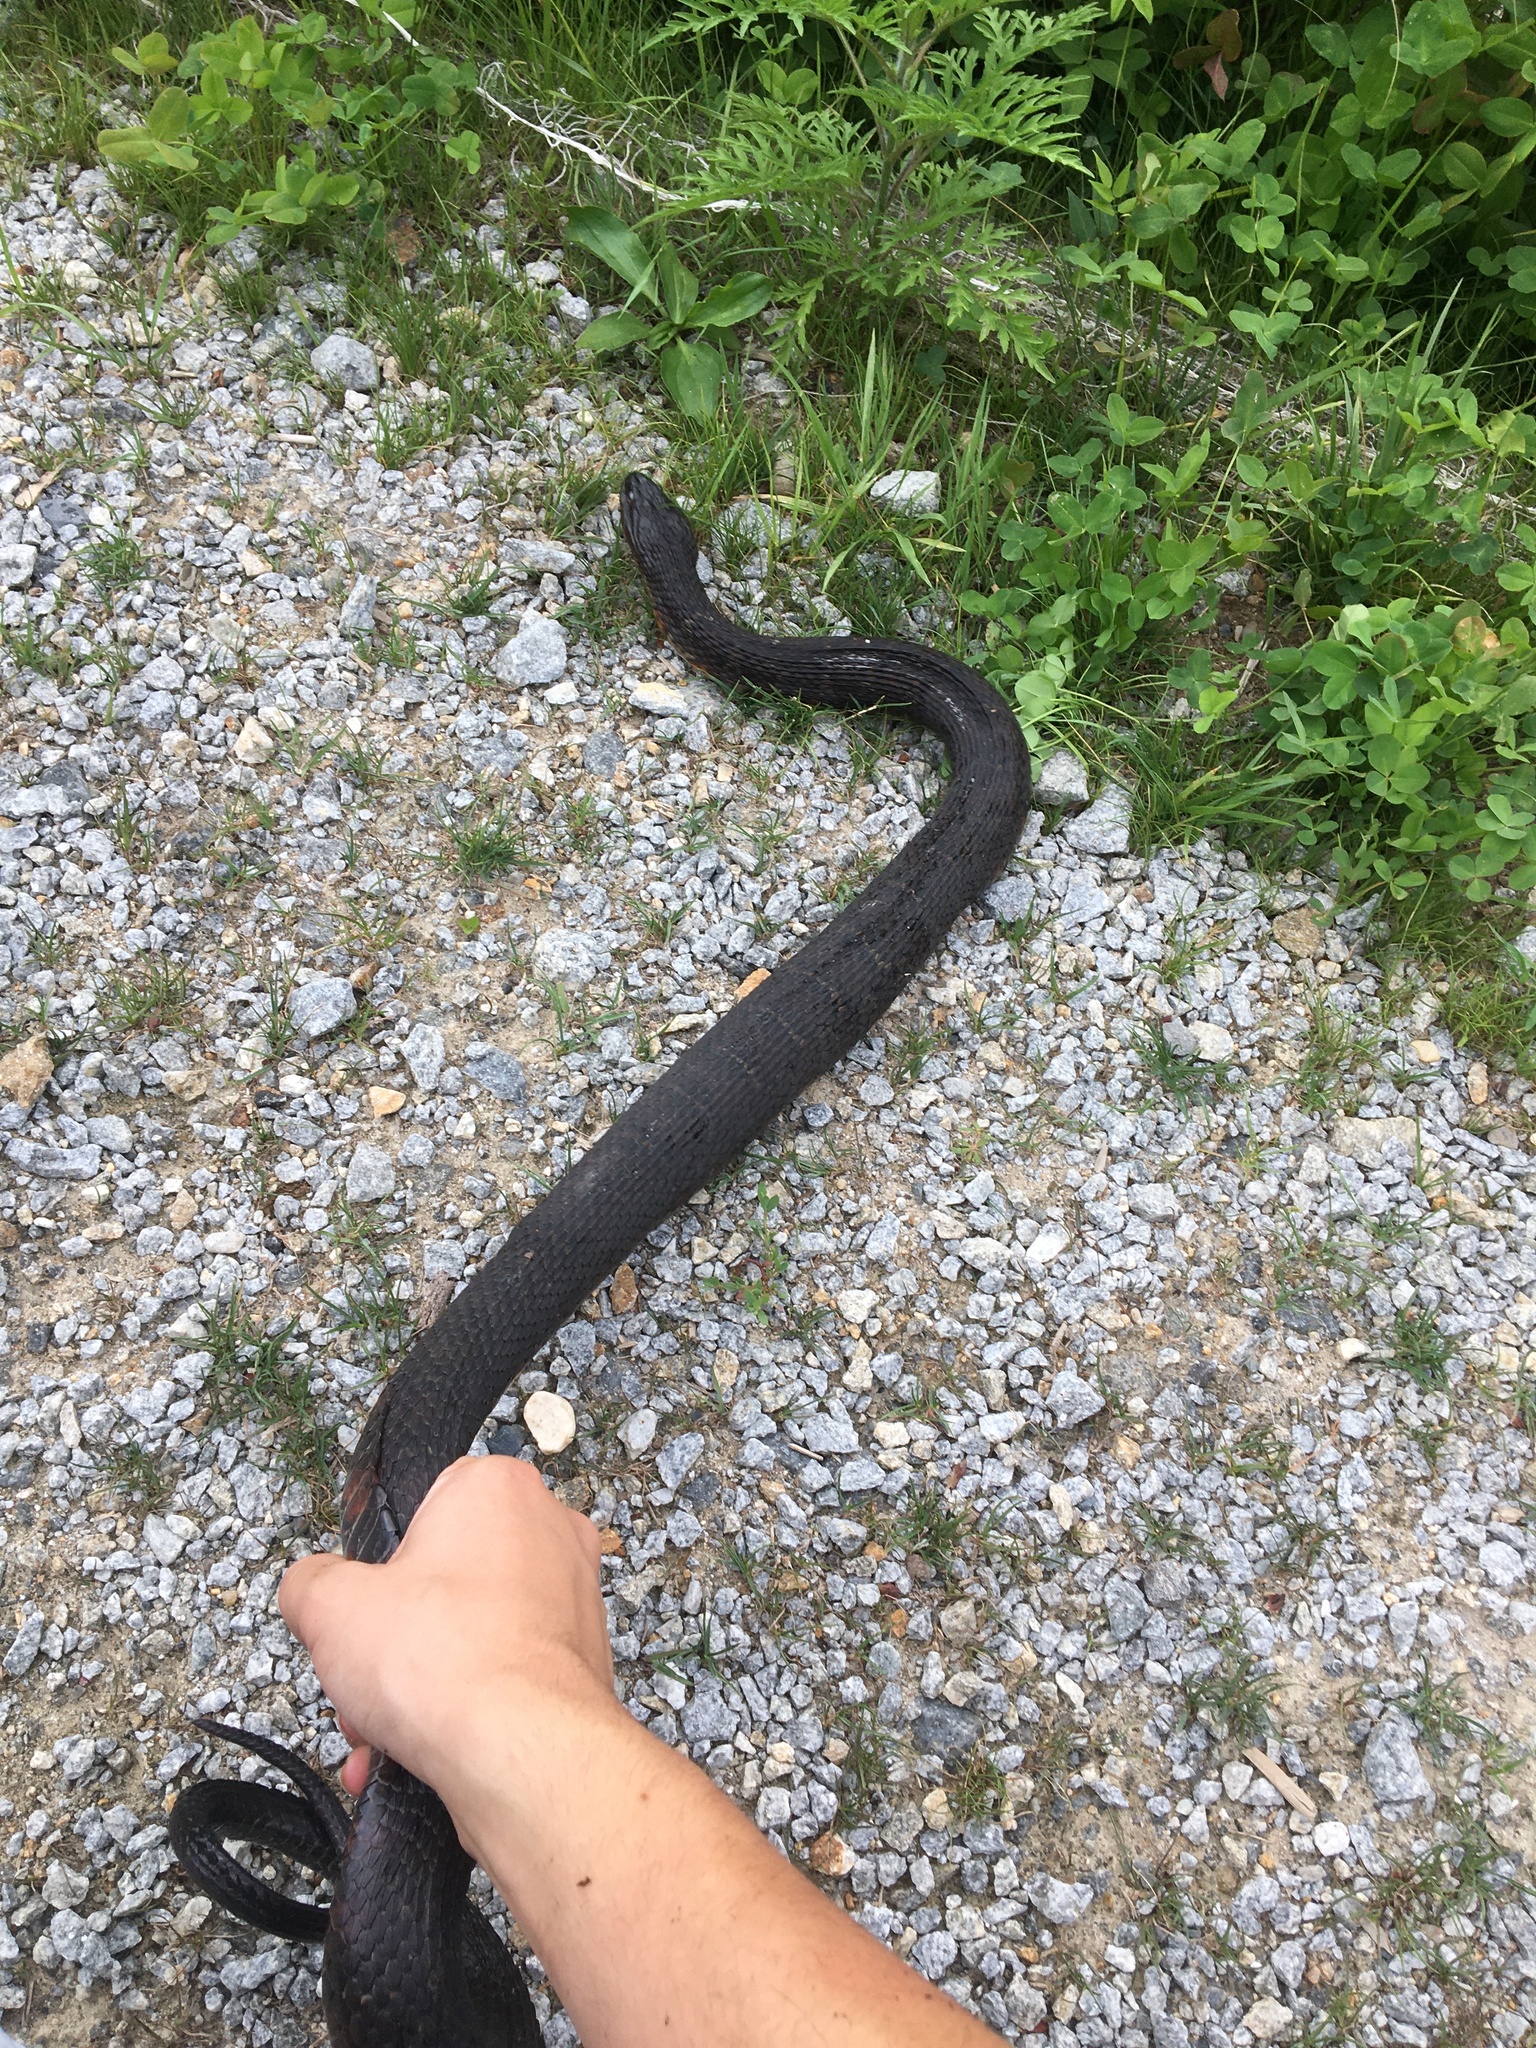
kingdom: Animalia
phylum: Chordata
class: Squamata
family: Colubridae
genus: Nerodia
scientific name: Nerodia sipedon
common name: Northern water snake
